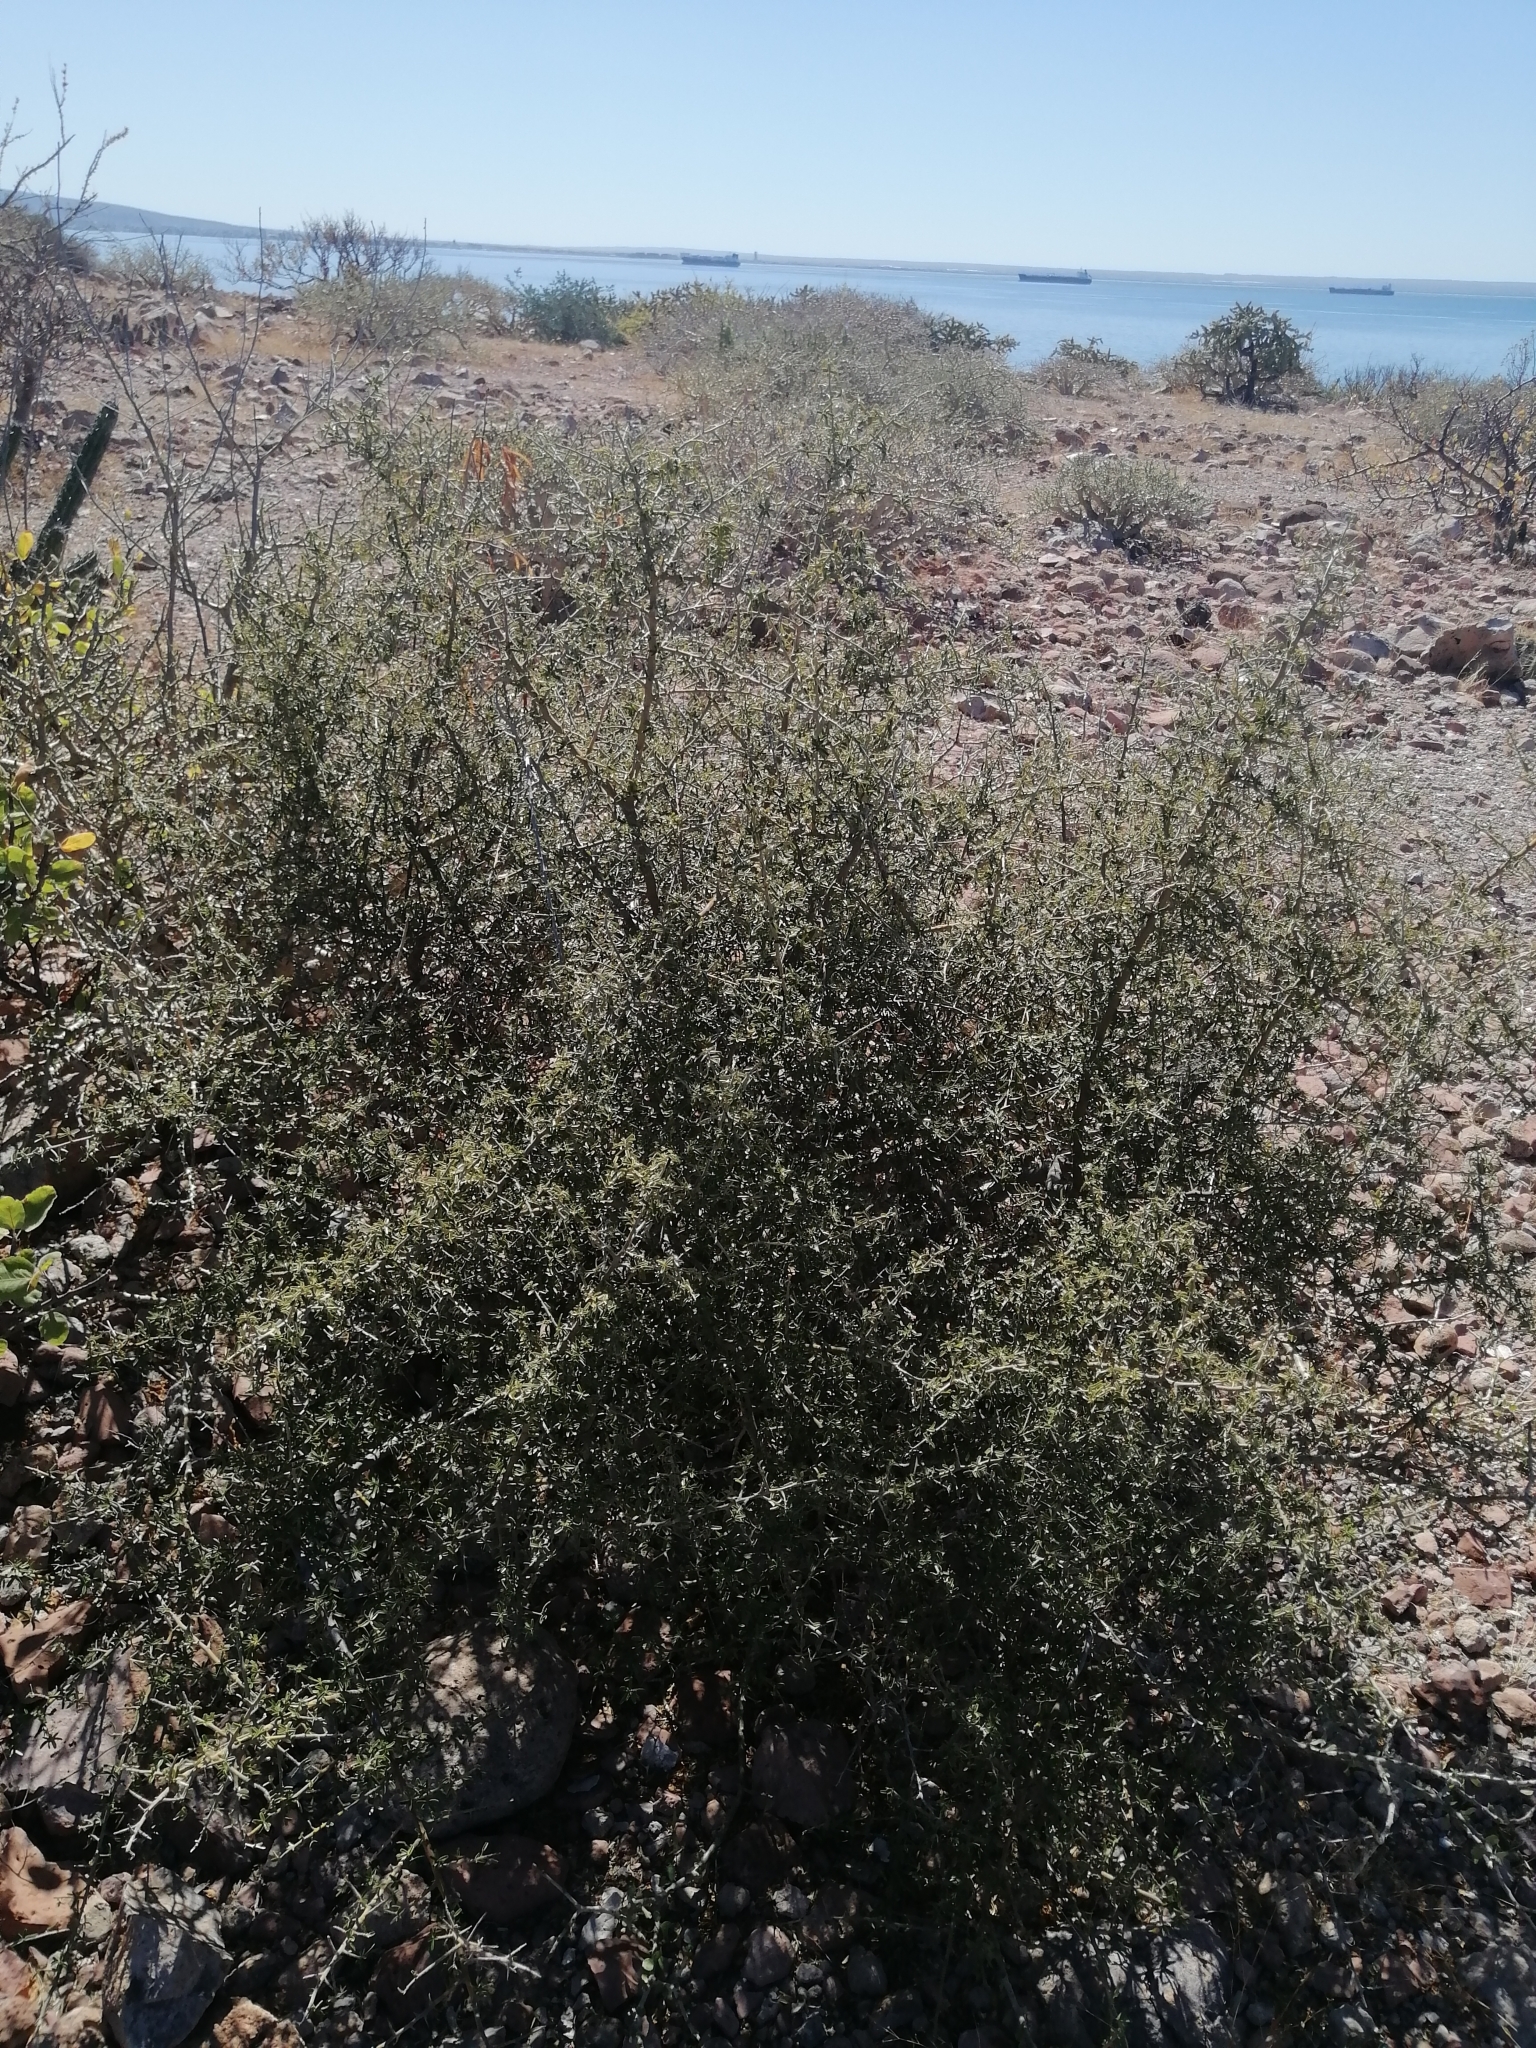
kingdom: Plantae
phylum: Tracheophyta
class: Magnoliopsida
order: Brassicales
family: Capparaceae
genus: Atamisquea
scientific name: Atamisquea emarginata
